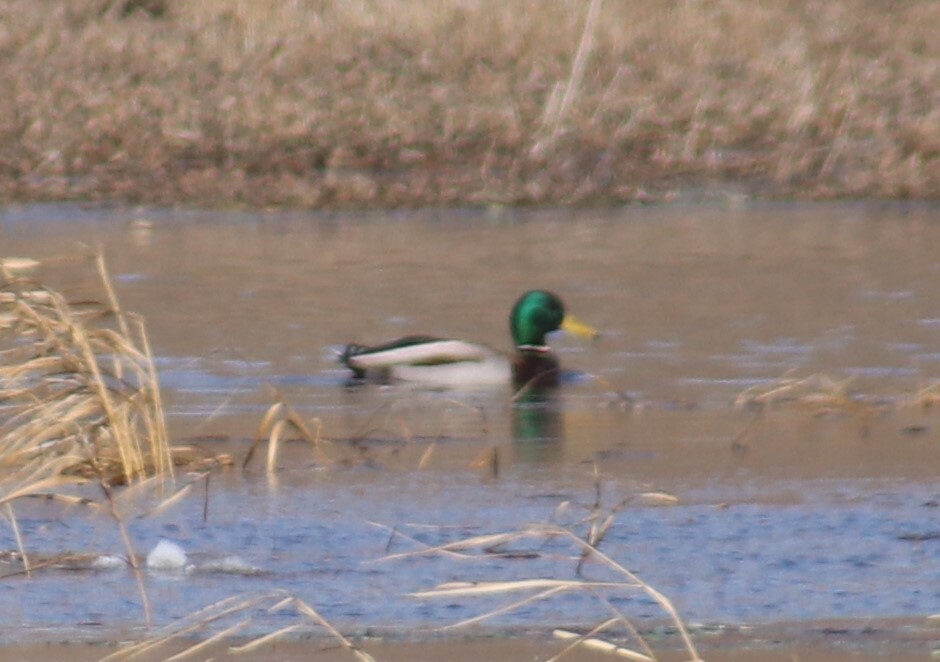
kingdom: Animalia
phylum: Chordata
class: Aves
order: Anseriformes
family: Anatidae
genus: Anas
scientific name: Anas platyrhynchos
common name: Mallard
